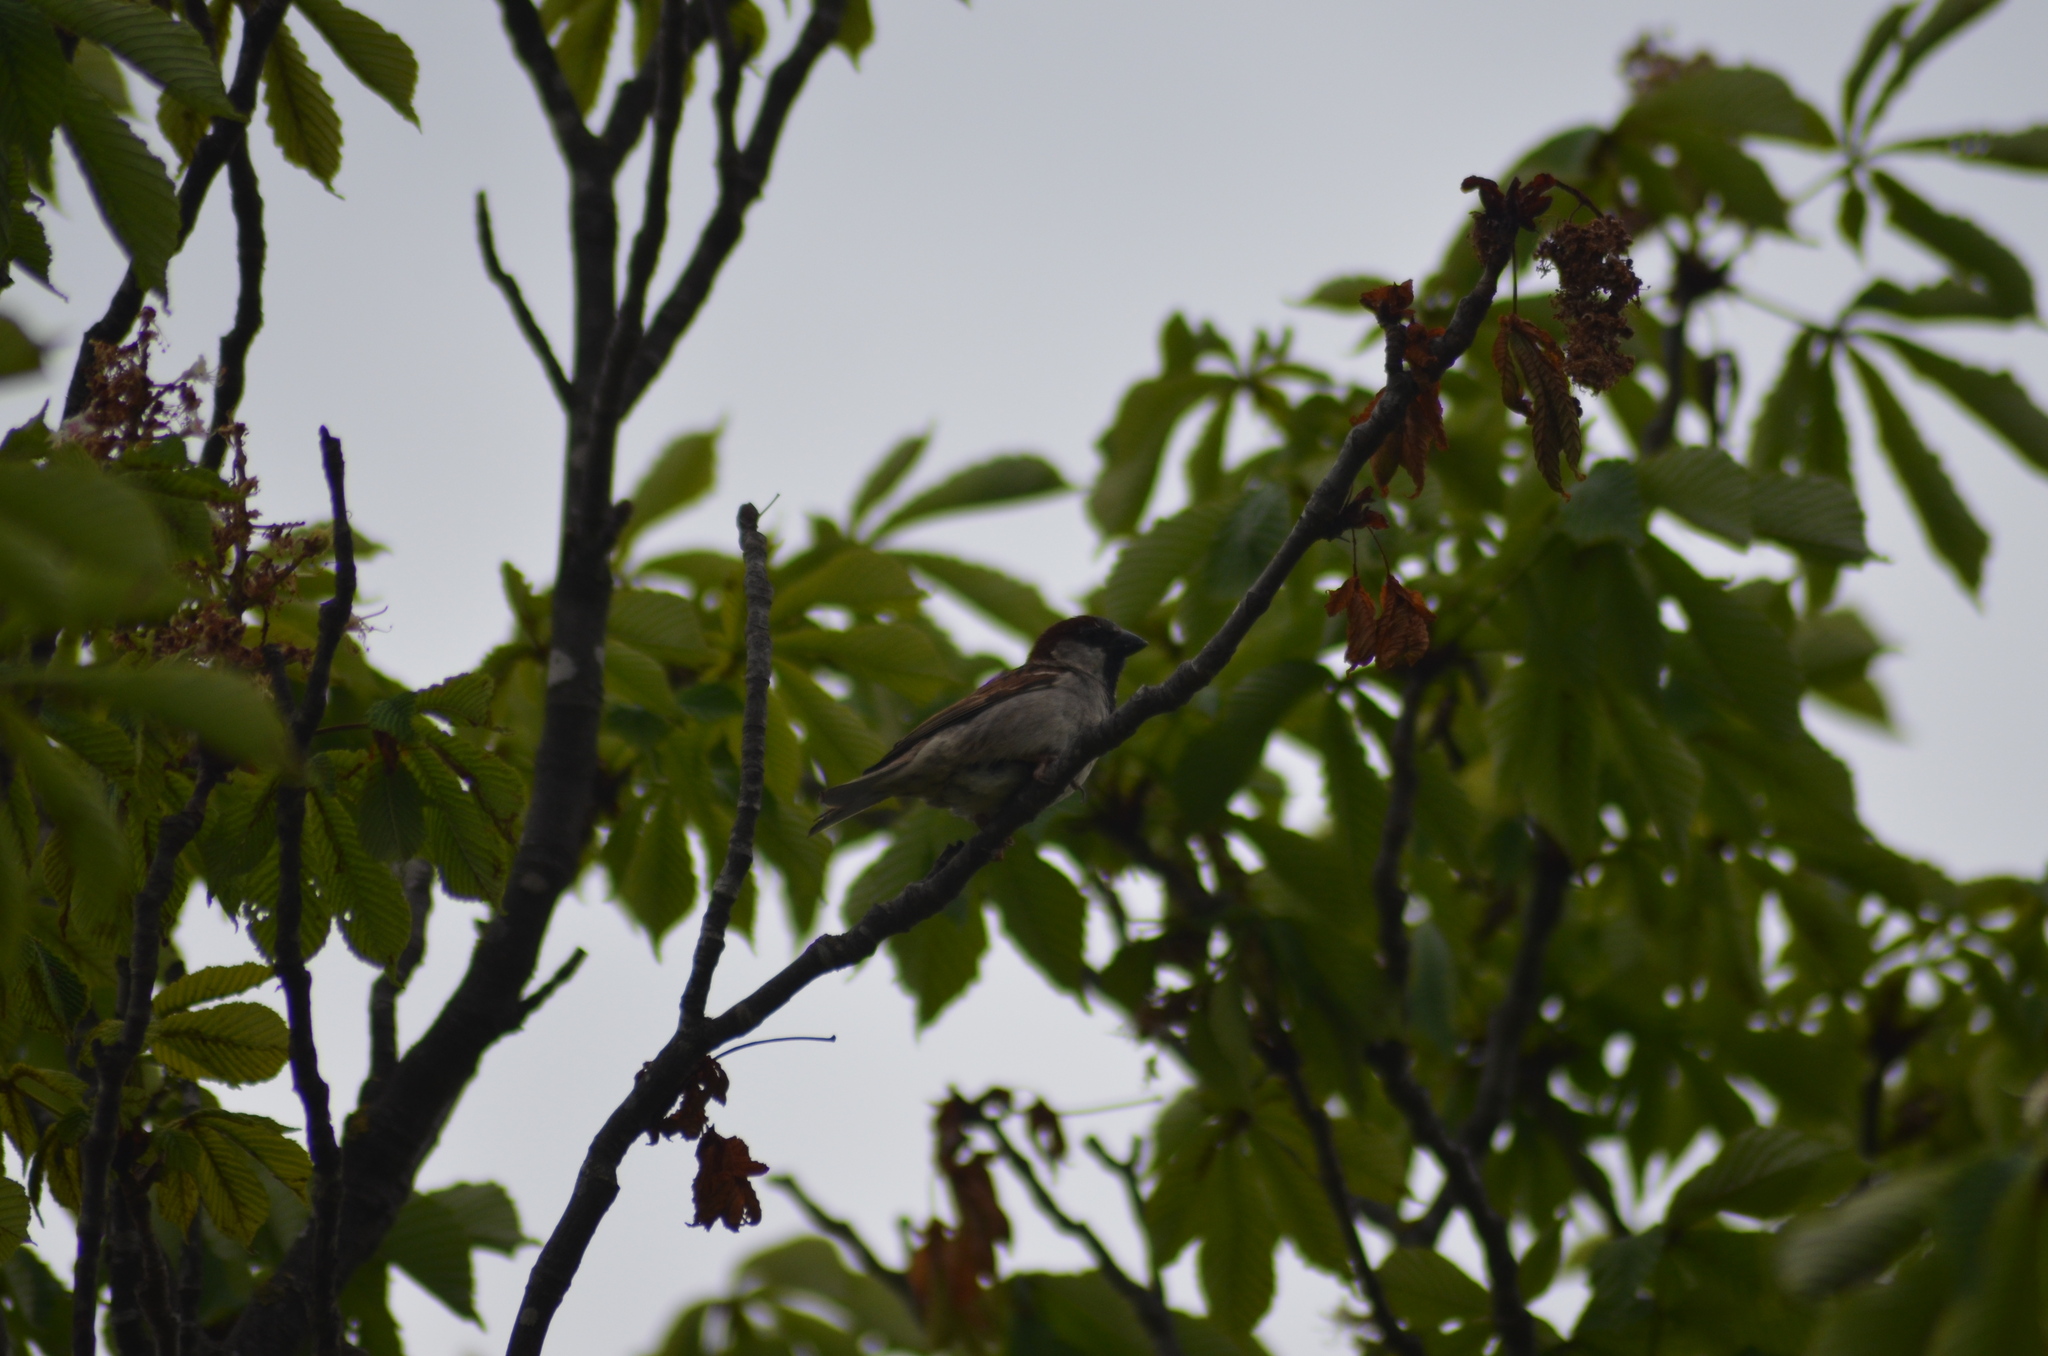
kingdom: Animalia
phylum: Chordata
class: Aves
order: Passeriformes
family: Passeridae
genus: Passer
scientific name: Passer domesticus
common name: House sparrow
